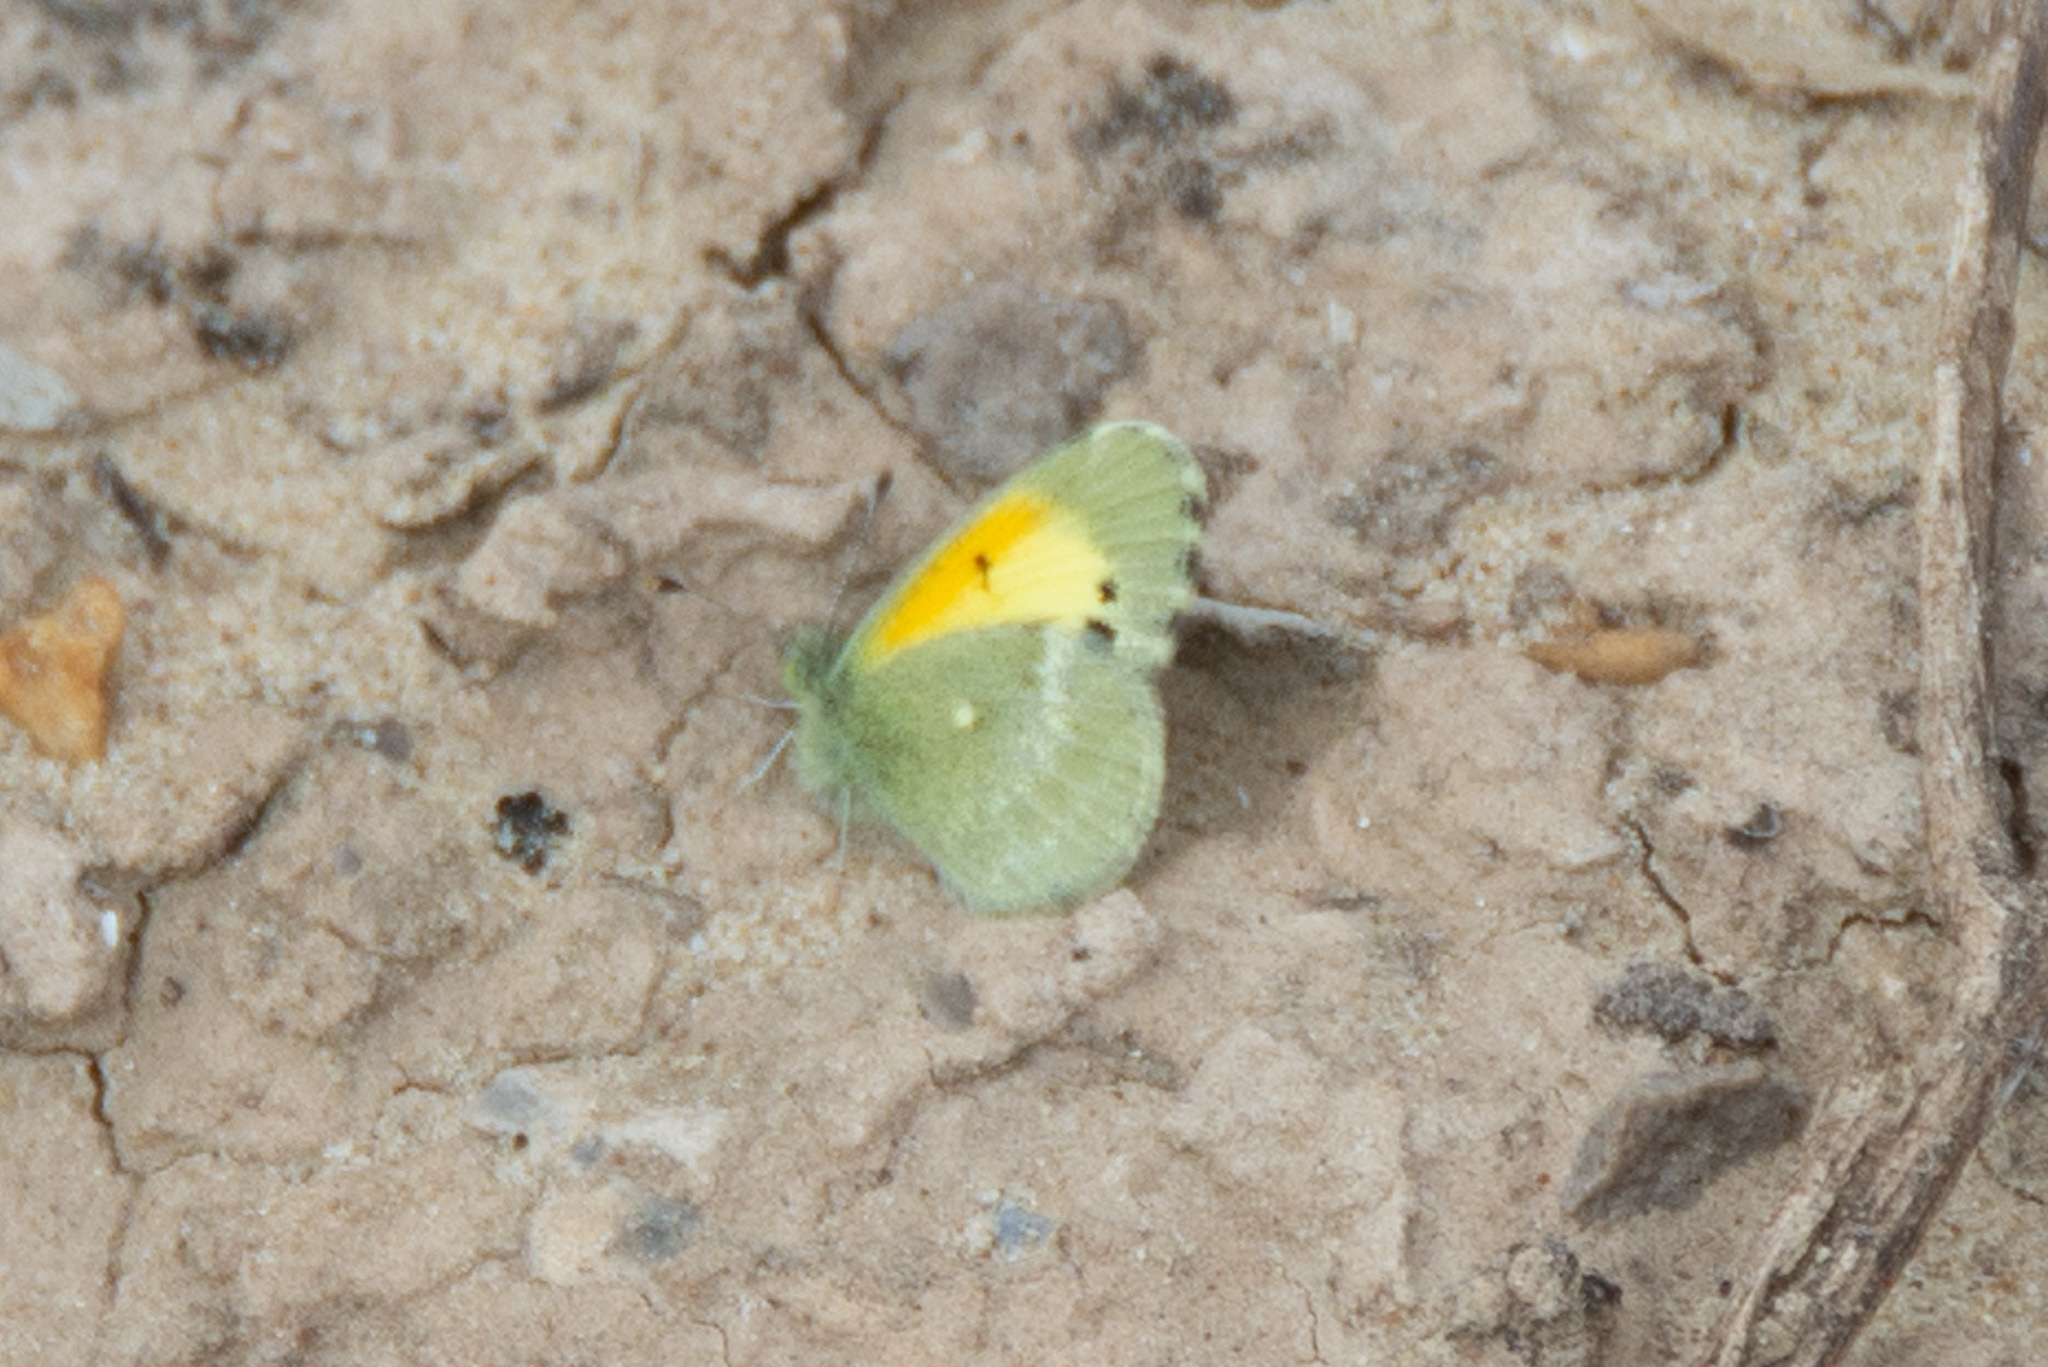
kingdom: Animalia
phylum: Arthropoda
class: Insecta
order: Lepidoptera
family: Pieridae
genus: Nathalis
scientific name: Nathalis iole
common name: Dainty sulphur
